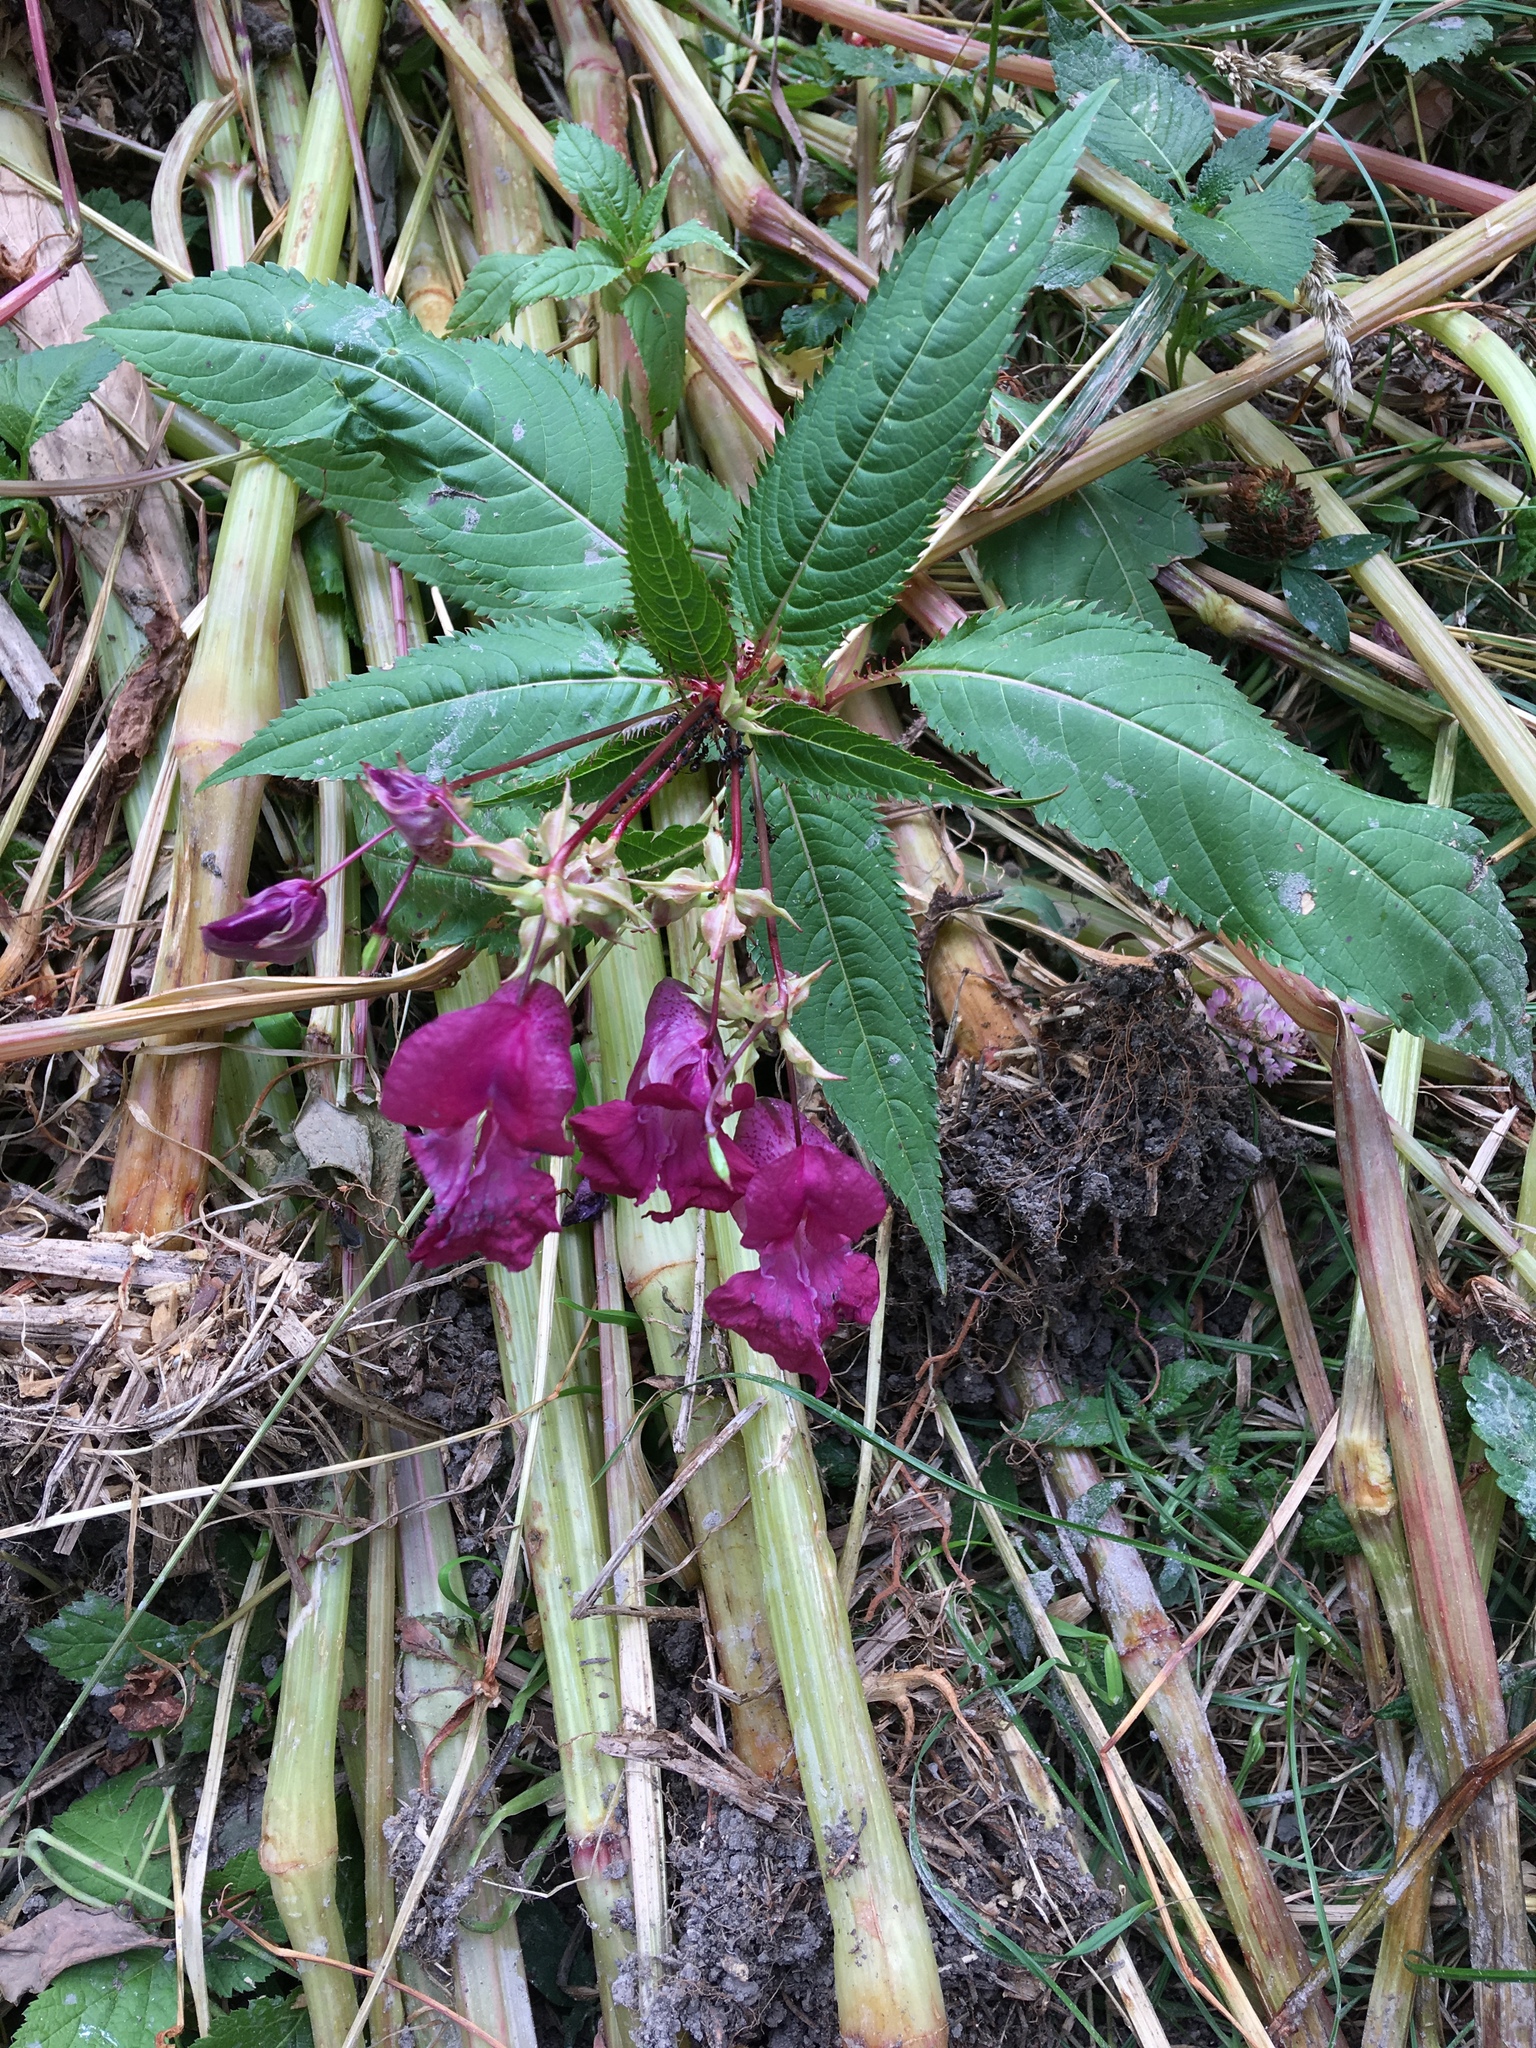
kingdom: Plantae
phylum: Tracheophyta
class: Magnoliopsida
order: Ericales
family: Balsaminaceae
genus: Impatiens
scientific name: Impatiens glandulifera
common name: Himalayan balsam
